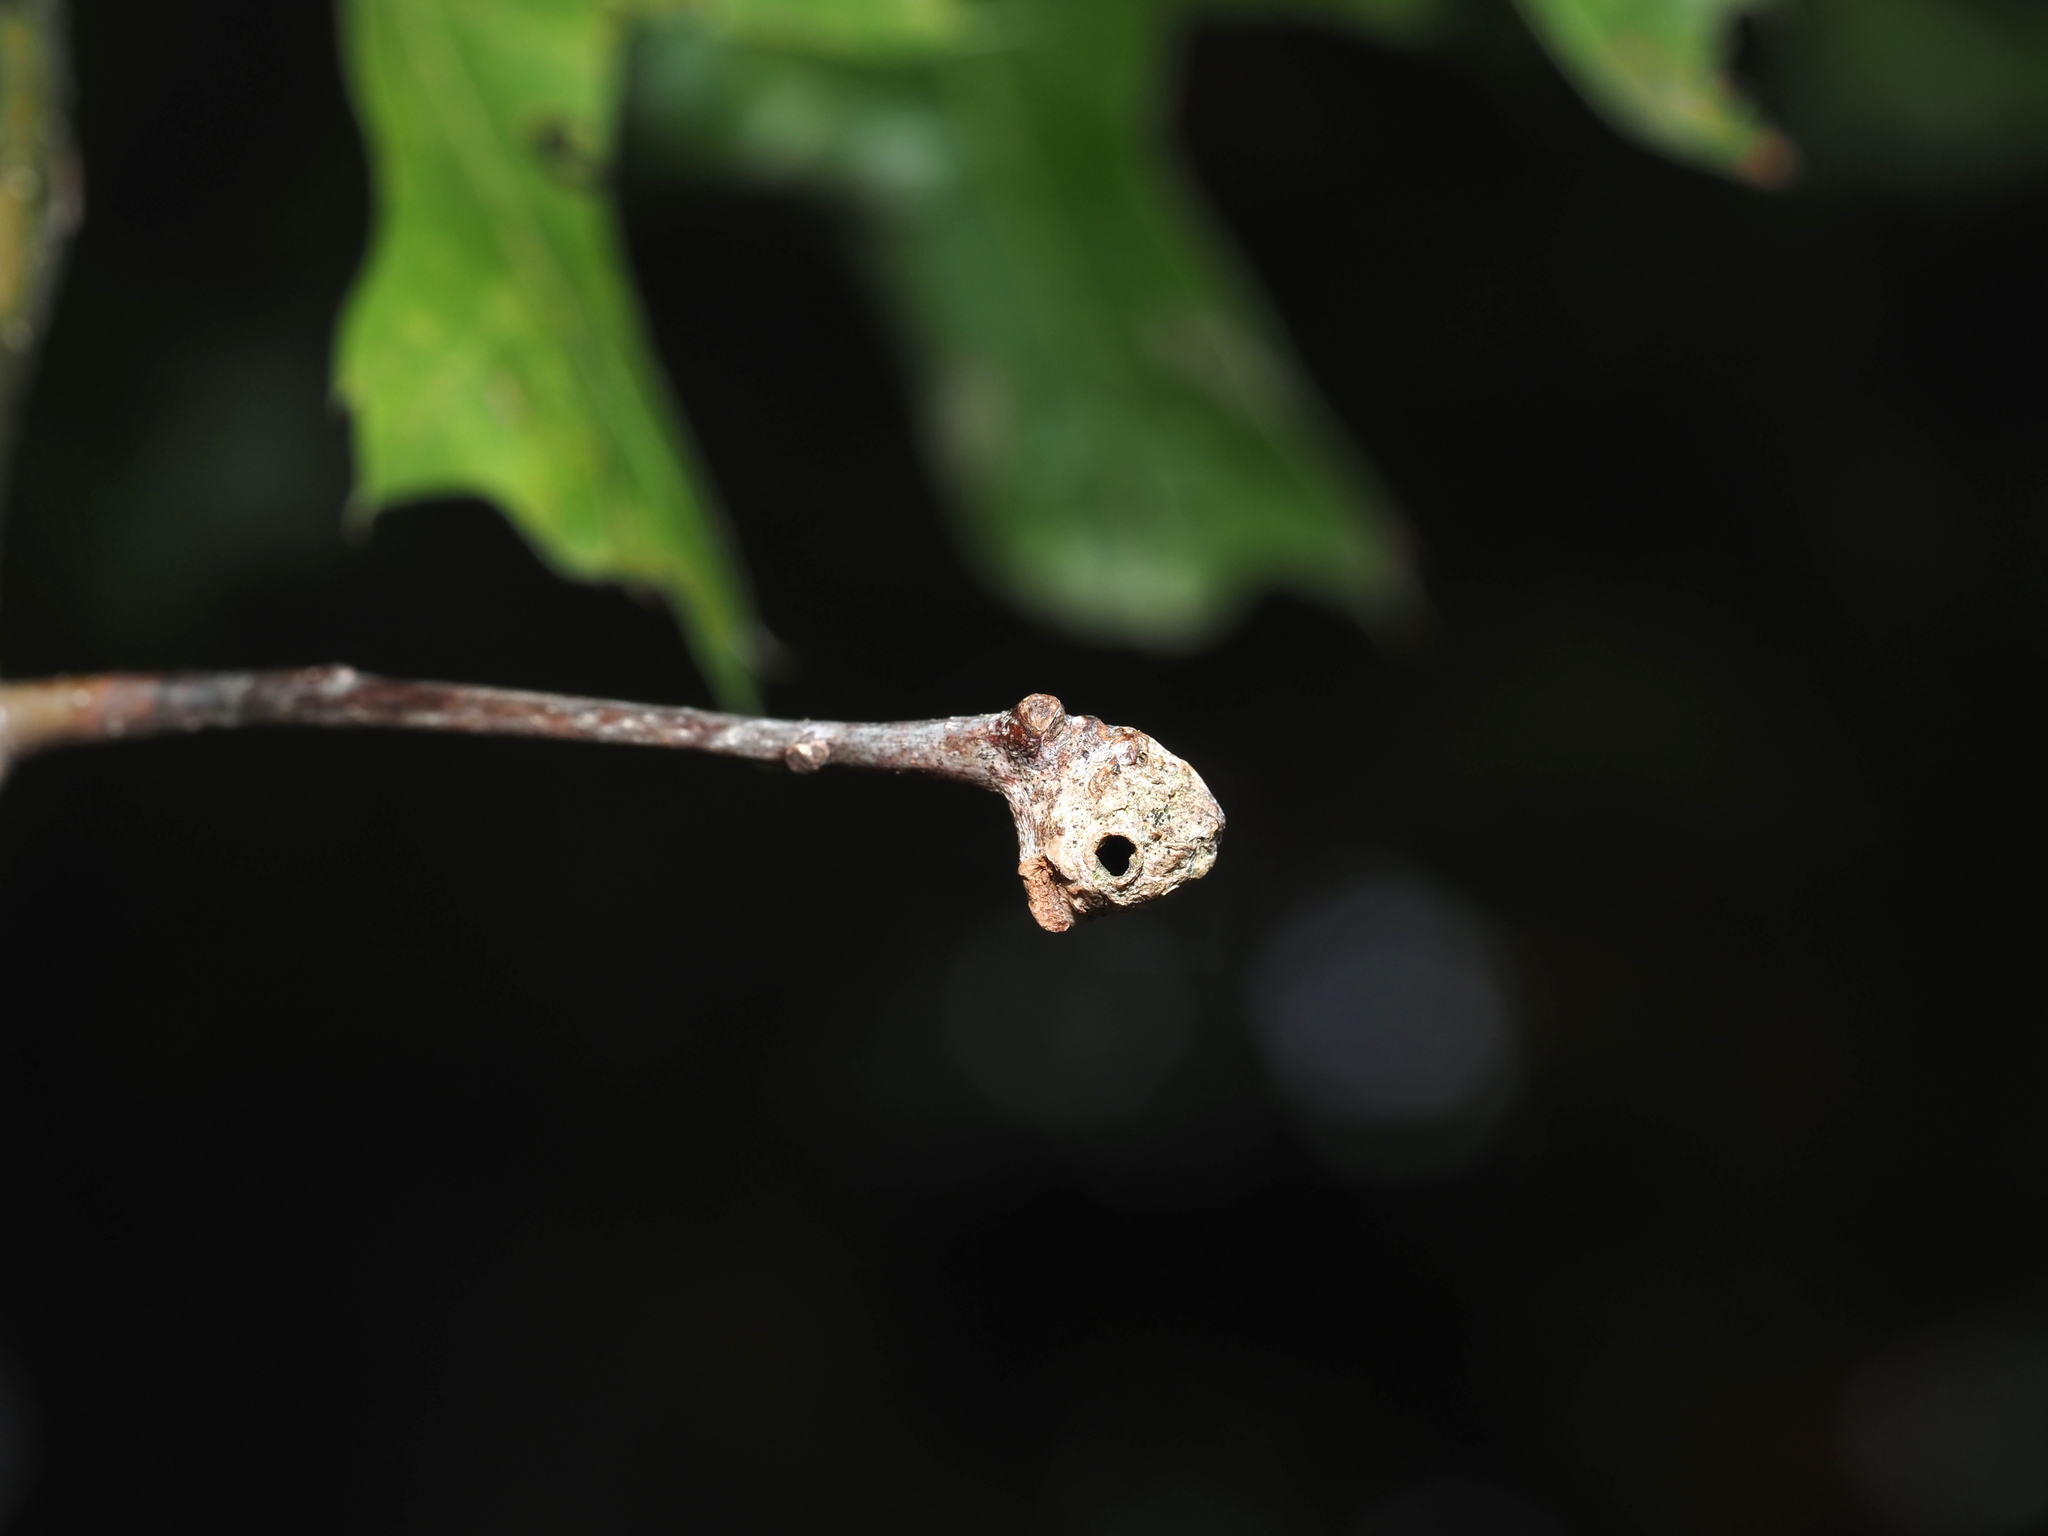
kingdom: Animalia
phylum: Arthropoda
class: Insecta
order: Hymenoptera
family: Cynipidae
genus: Dryocosmus
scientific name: Dryocosmus quercuspalustris
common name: Succulent oak gall wasp
